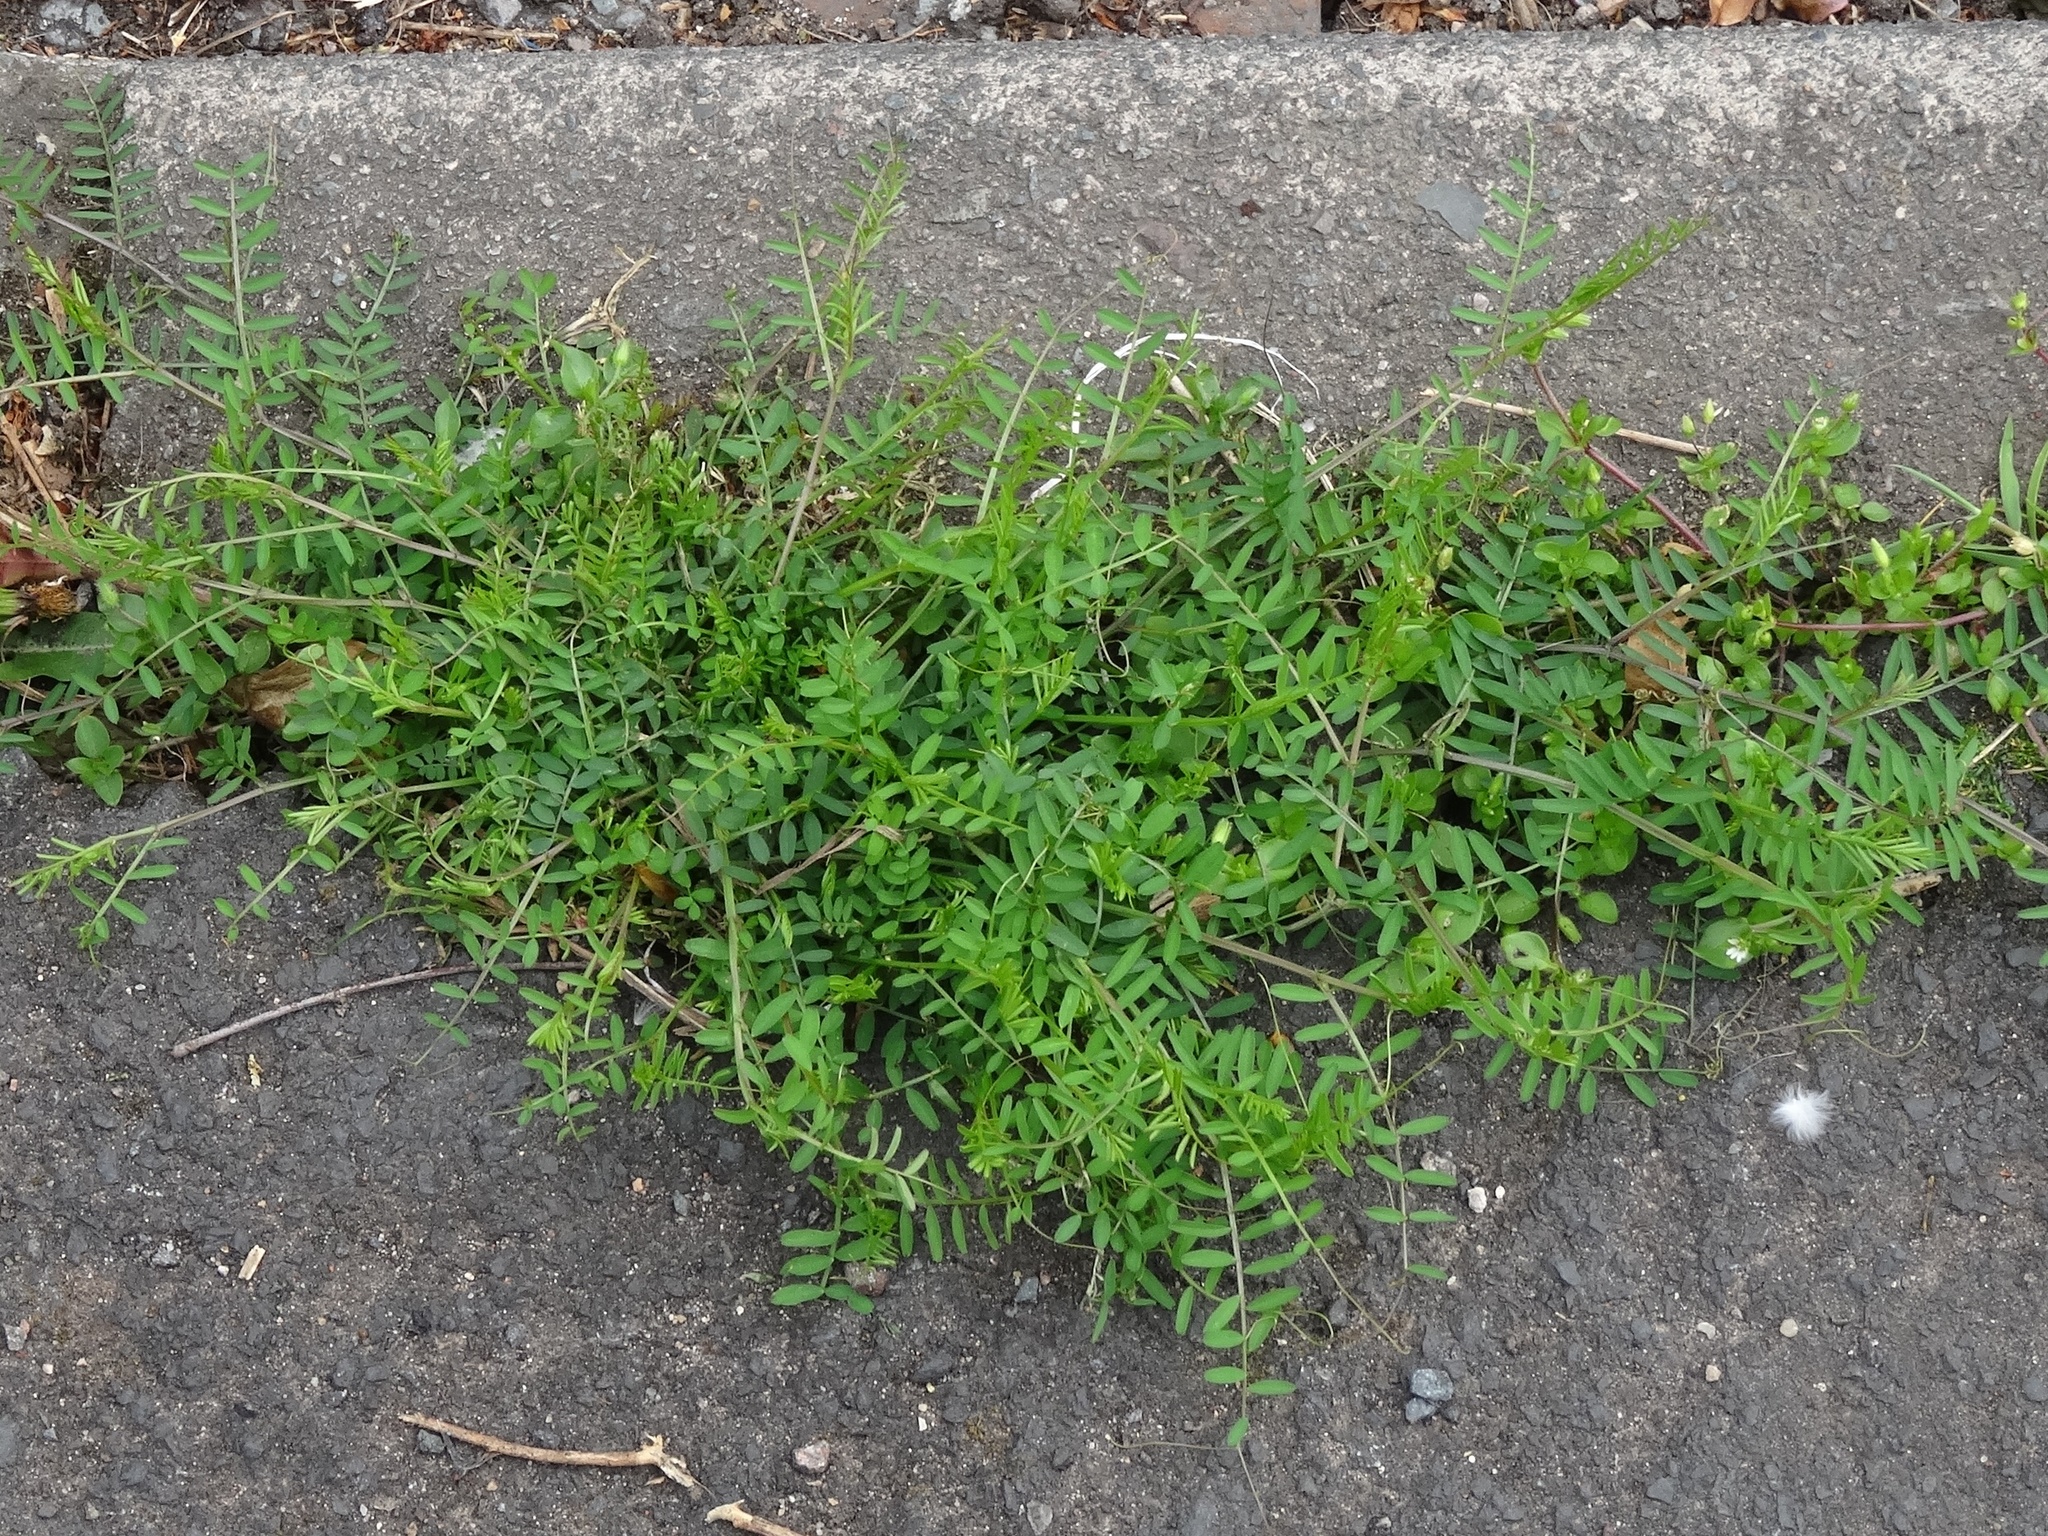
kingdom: Plantae
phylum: Tracheophyta
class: Magnoliopsida
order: Fabales
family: Fabaceae
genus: Vicia
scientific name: Vicia hirsuta
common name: Tiny vetch
